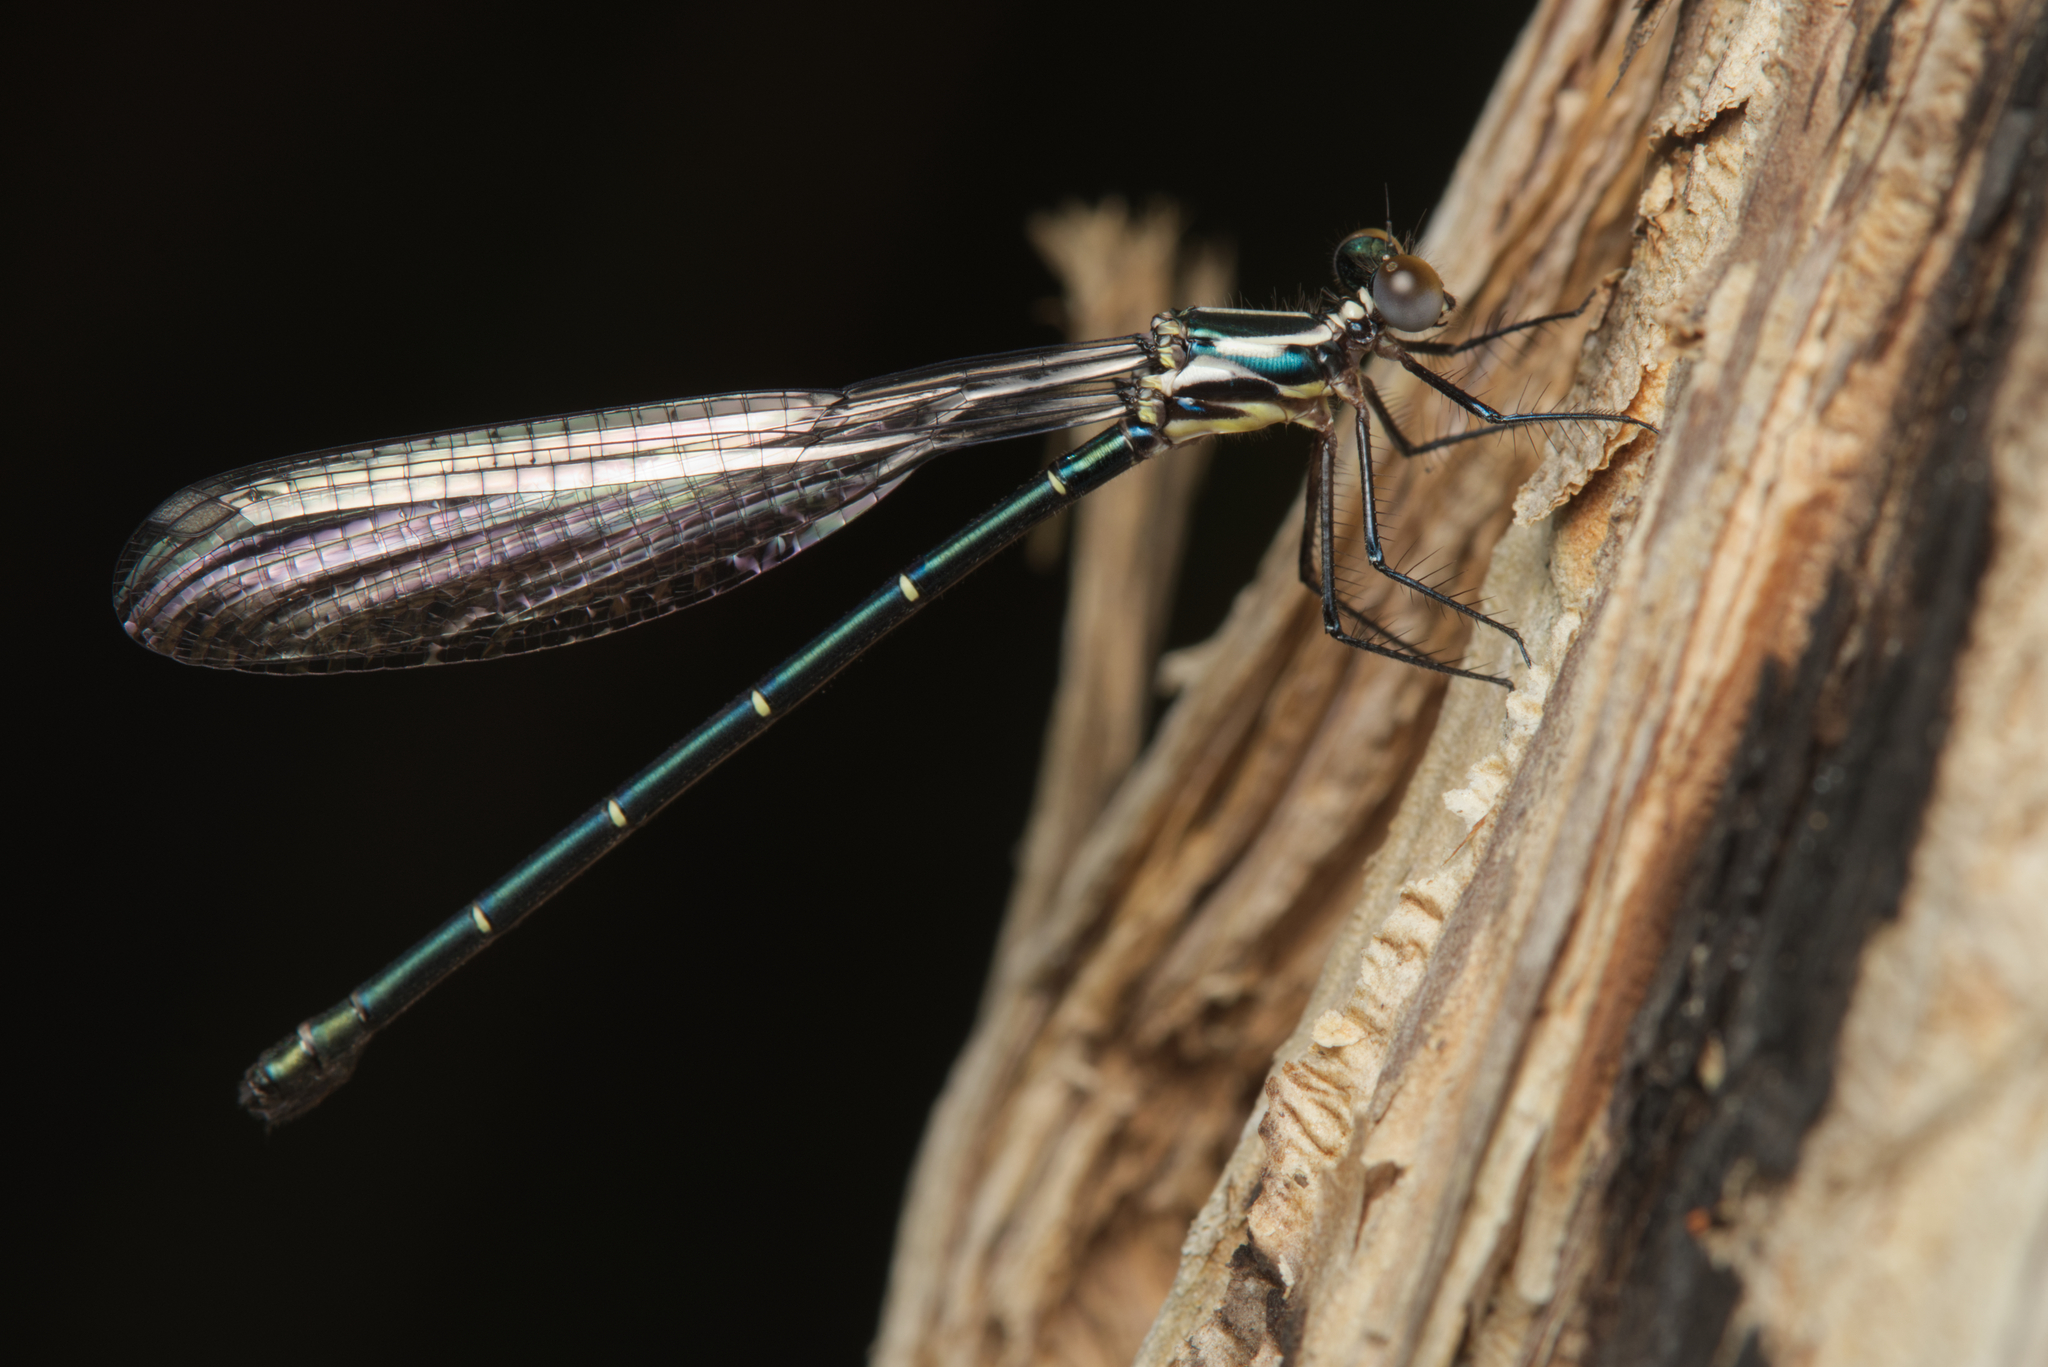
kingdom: Animalia
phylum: Arthropoda
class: Insecta
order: Odonata
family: Argiolestidae
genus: Austroargiolestes
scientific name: Austroargiolestes icteromelas
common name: Common flatwing
